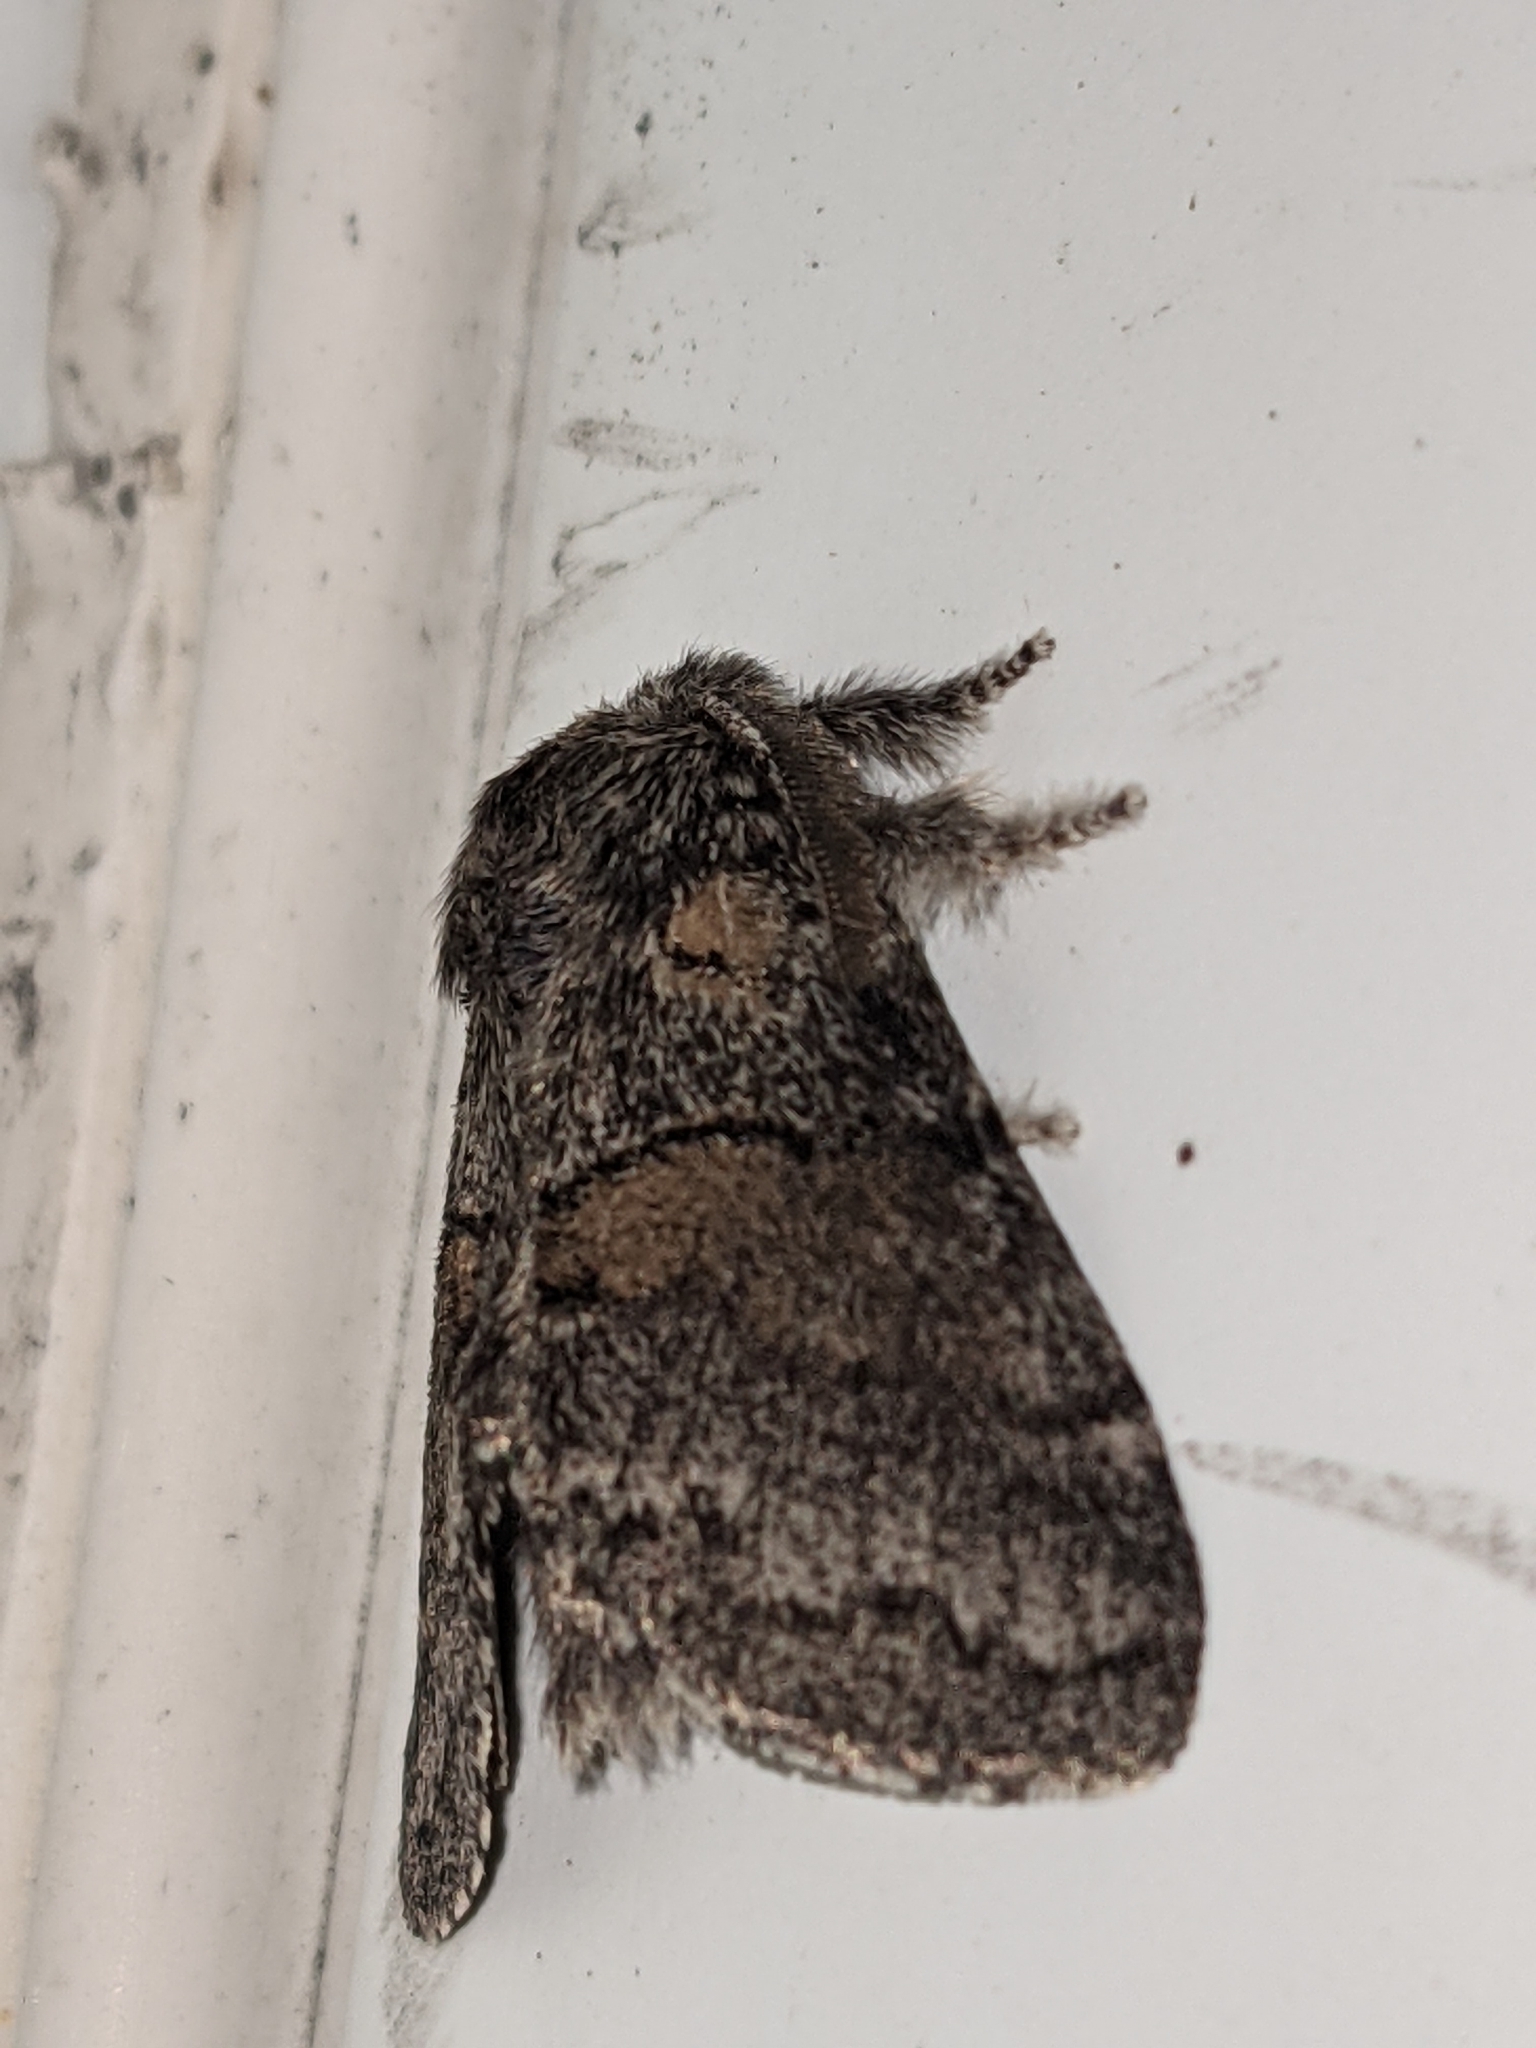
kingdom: Animalia
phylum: Arthropoda
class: Insecta
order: Lepidoptera
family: Notodontidae
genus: Gluphisia
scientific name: Gluphisia septentrionis
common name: Common gluphisia
